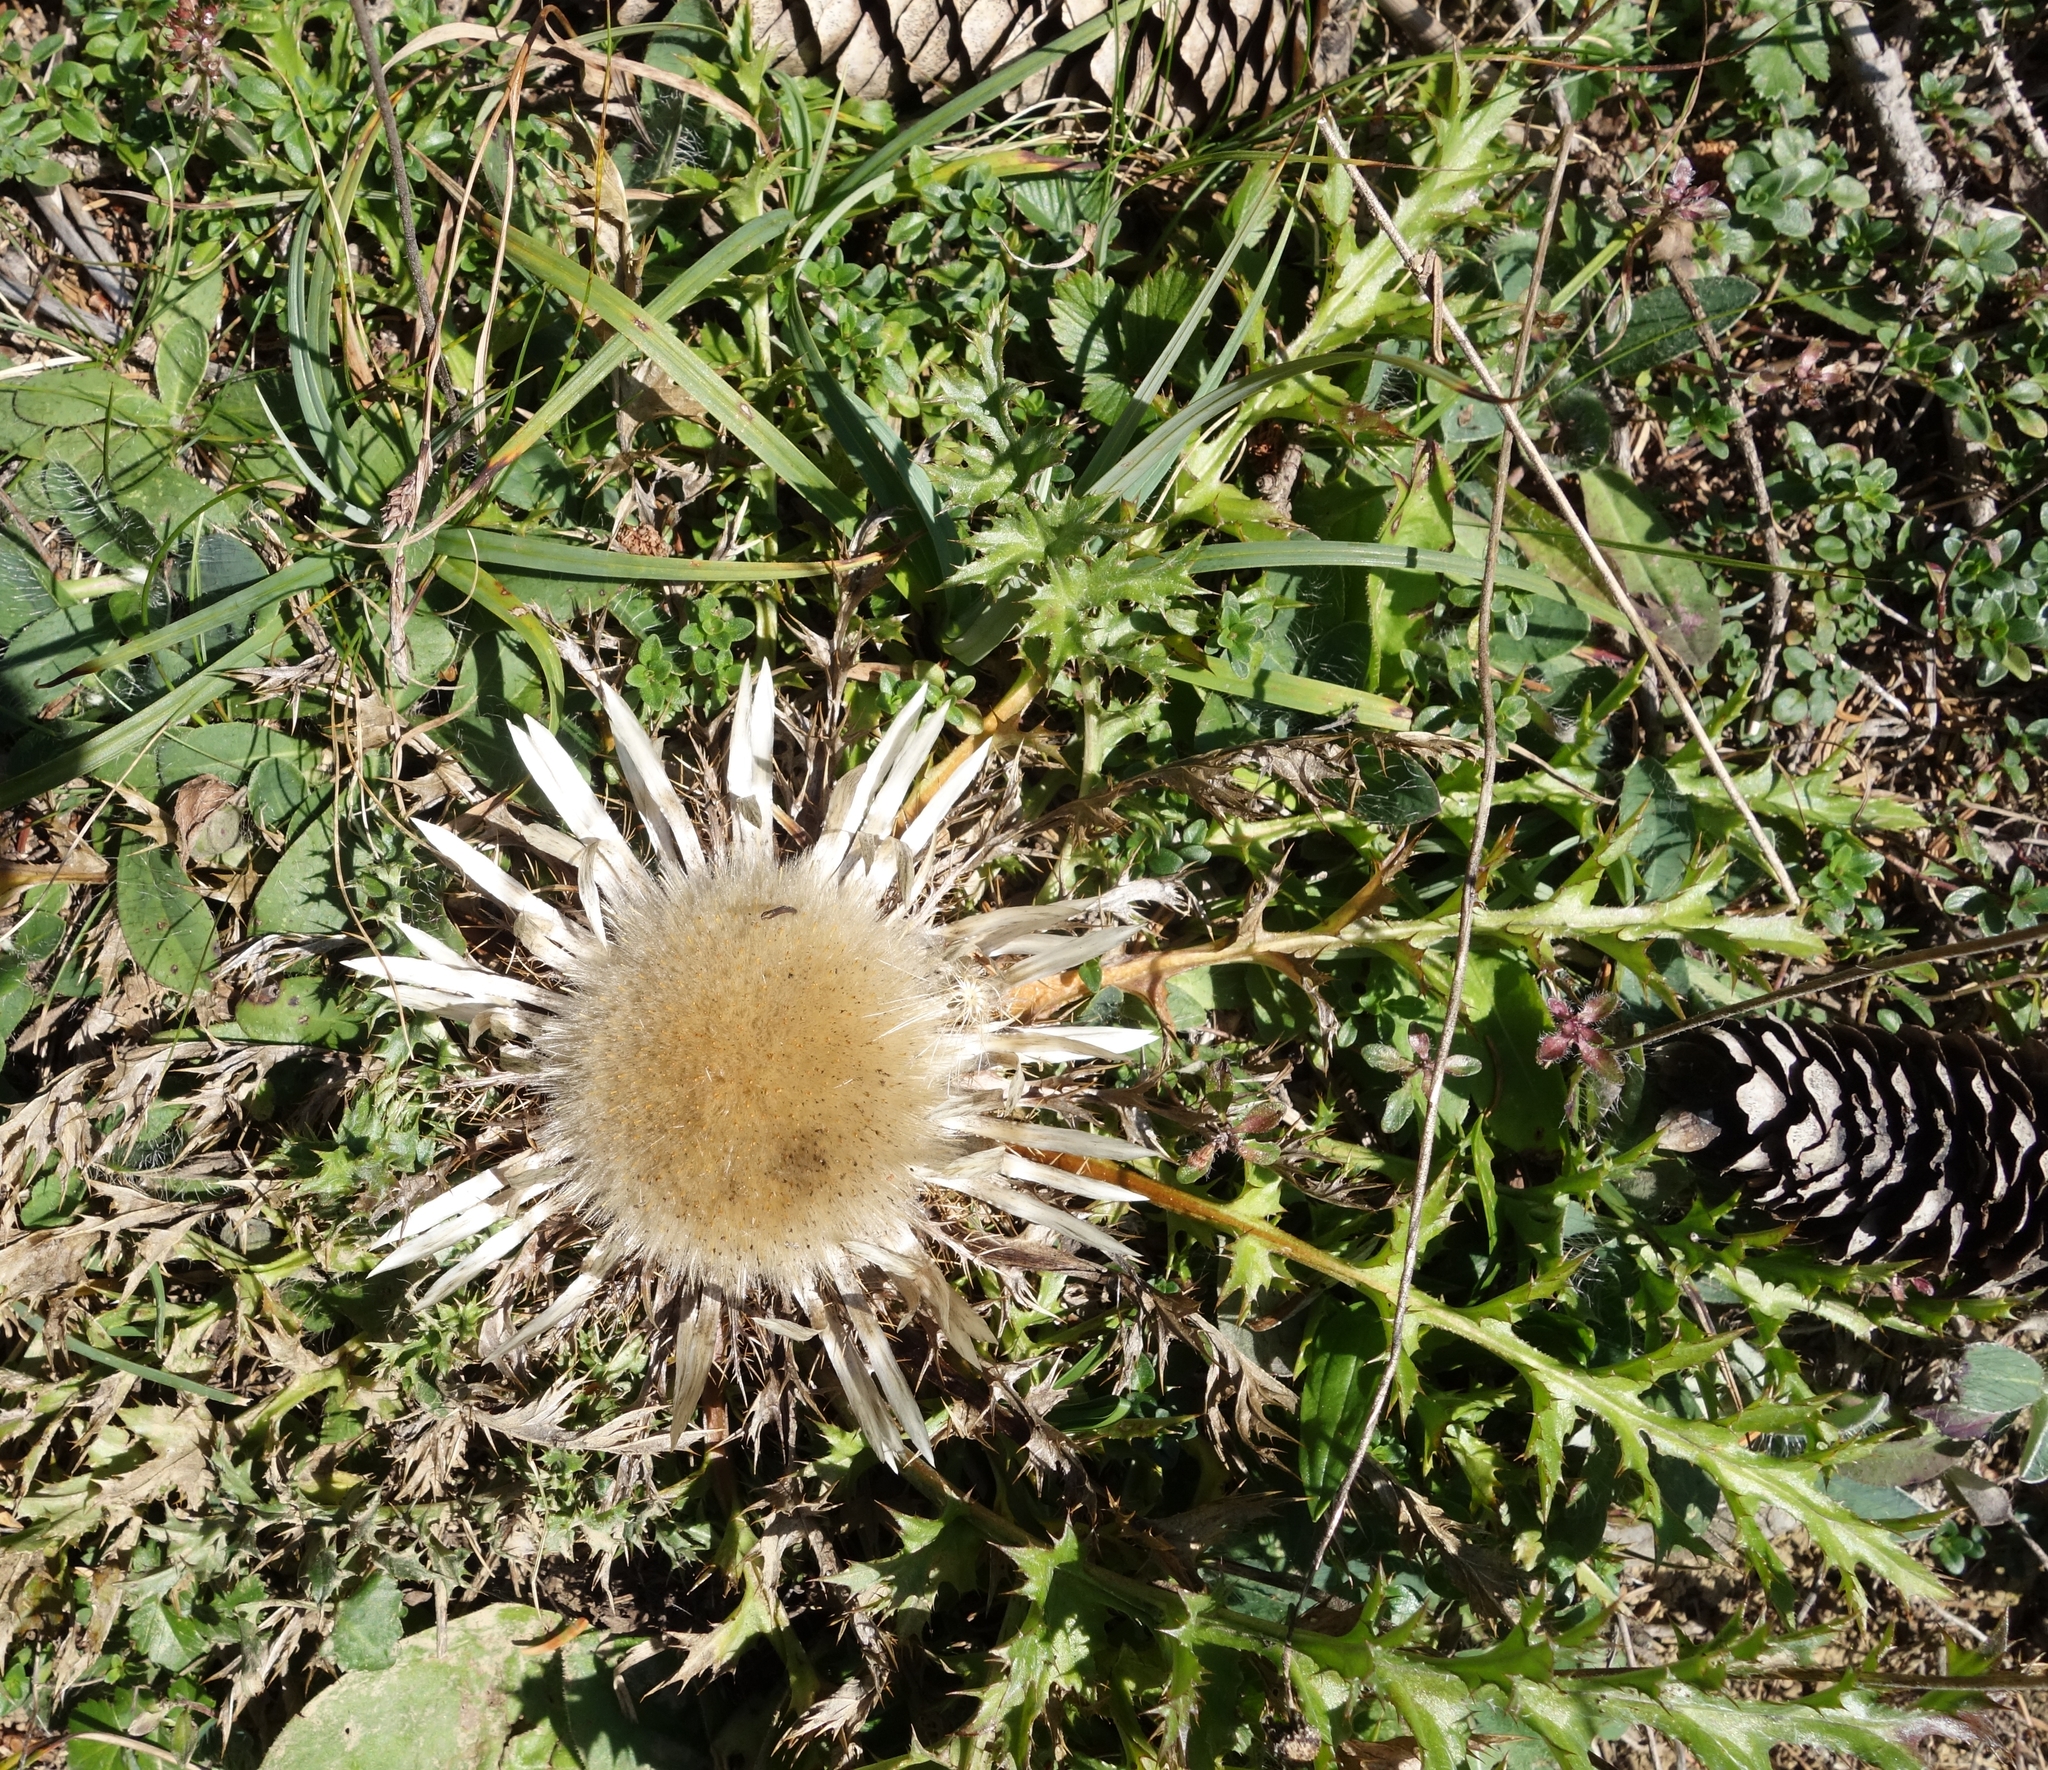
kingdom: Plantae
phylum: Tracheophyta
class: Magnoliopsida
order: Asterales
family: Asteraceae
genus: Carlina
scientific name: Carlina acaulis
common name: Stemless carline thistle
